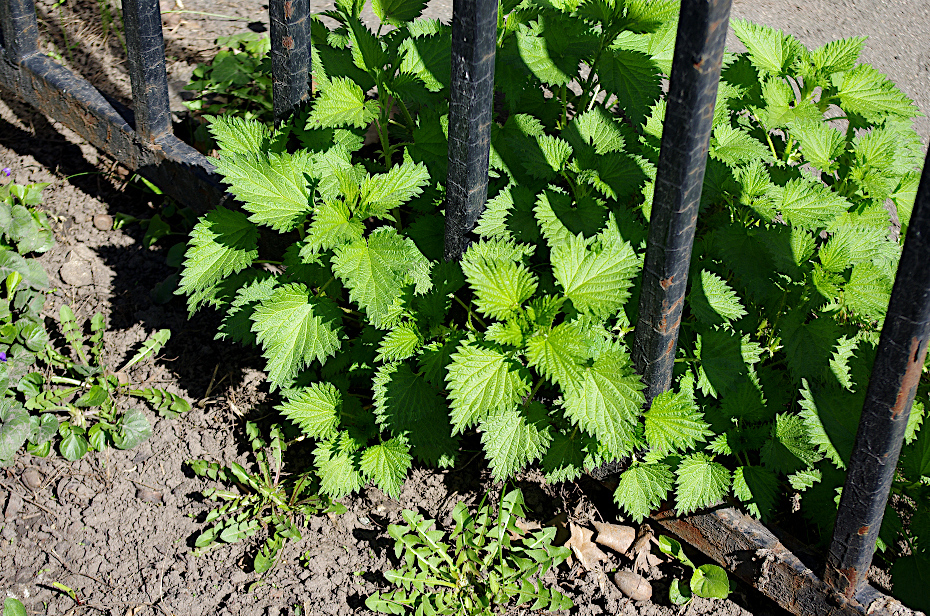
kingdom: Plantae
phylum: Tracheophyta
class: Magnoliopsida
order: Rosales
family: Urticaceae
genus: Urtica
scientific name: Urtica dioica
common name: Common nettle
